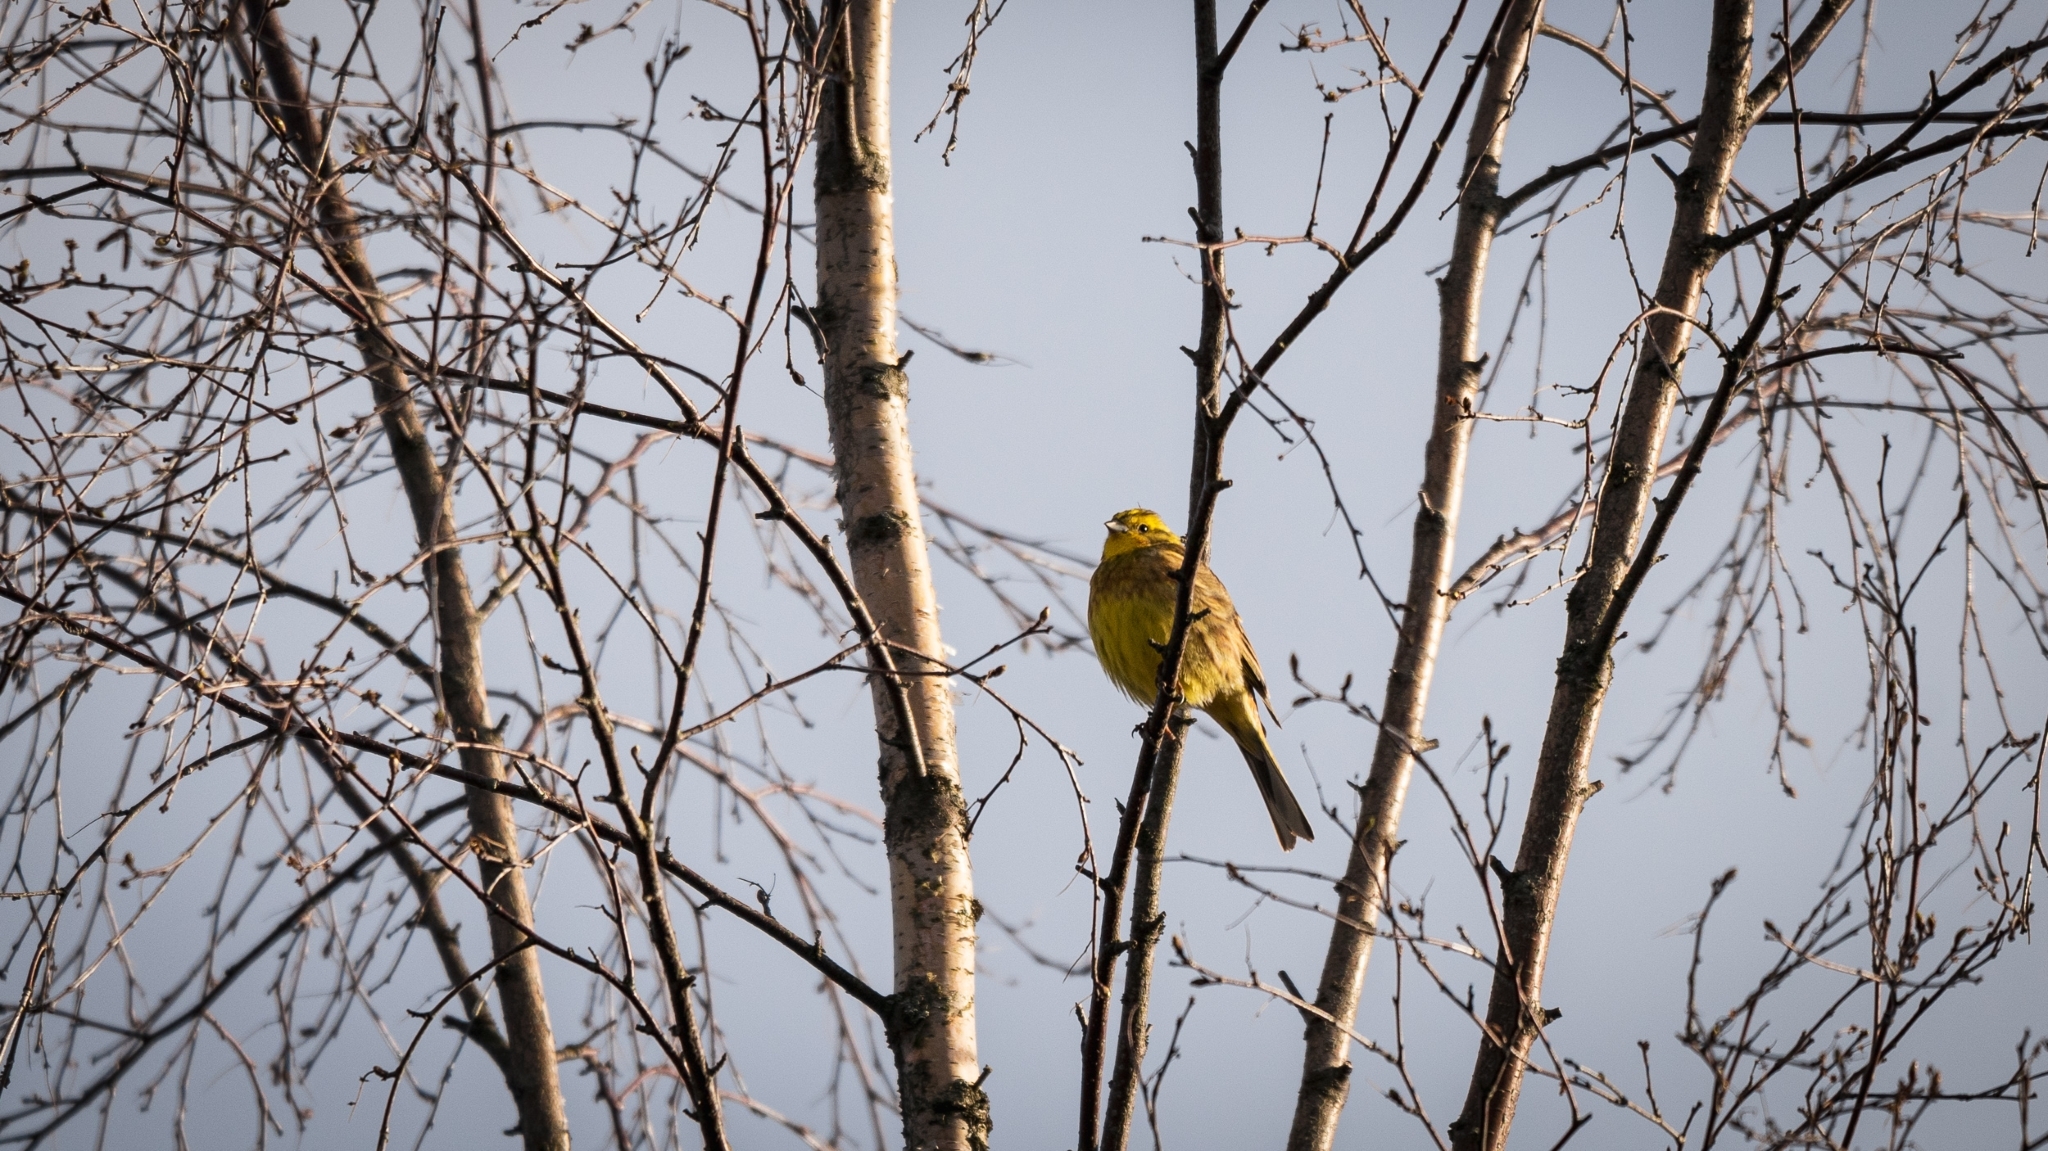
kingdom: Animalia
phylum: Chordata
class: Aves
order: Passeriformes
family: Emberizidae
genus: Emberiza
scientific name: Emberiza citrinella
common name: Yellowhammer
